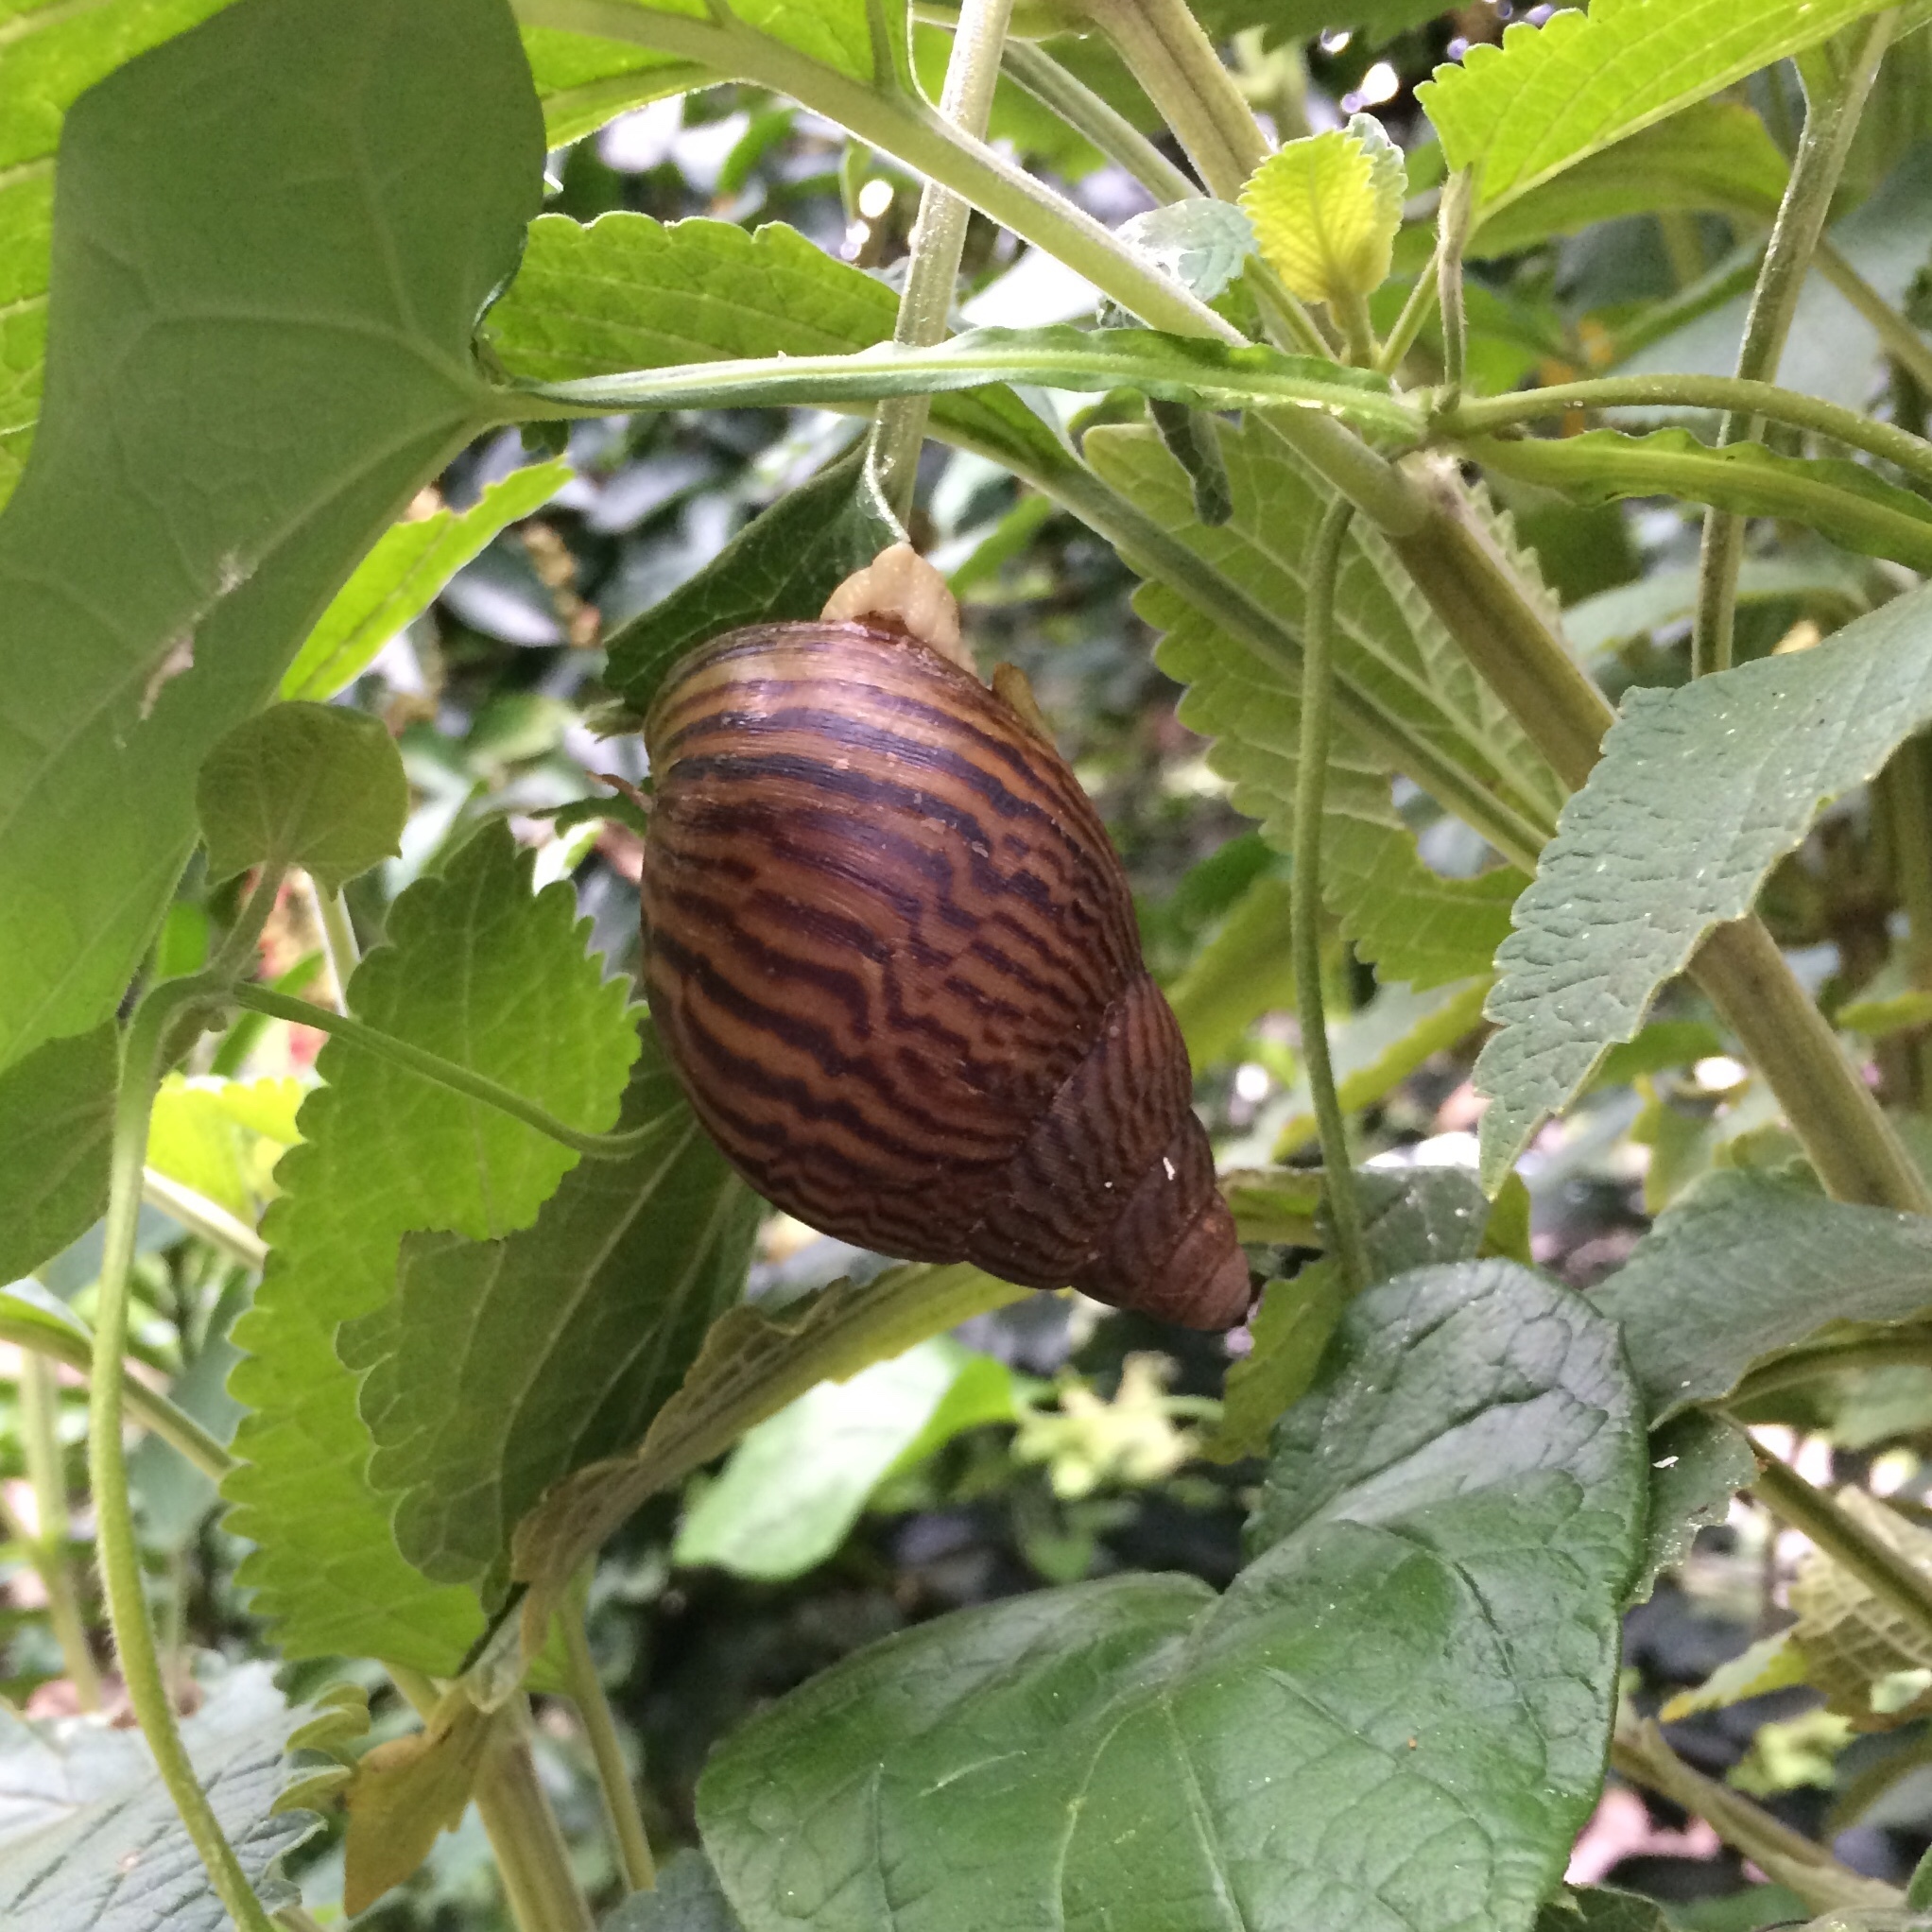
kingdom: Animalia
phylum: Mollusca
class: Gastropoda
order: Stylommatophora
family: Achatinidae
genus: Cochlitoma
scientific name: Cochlitoma granulata
